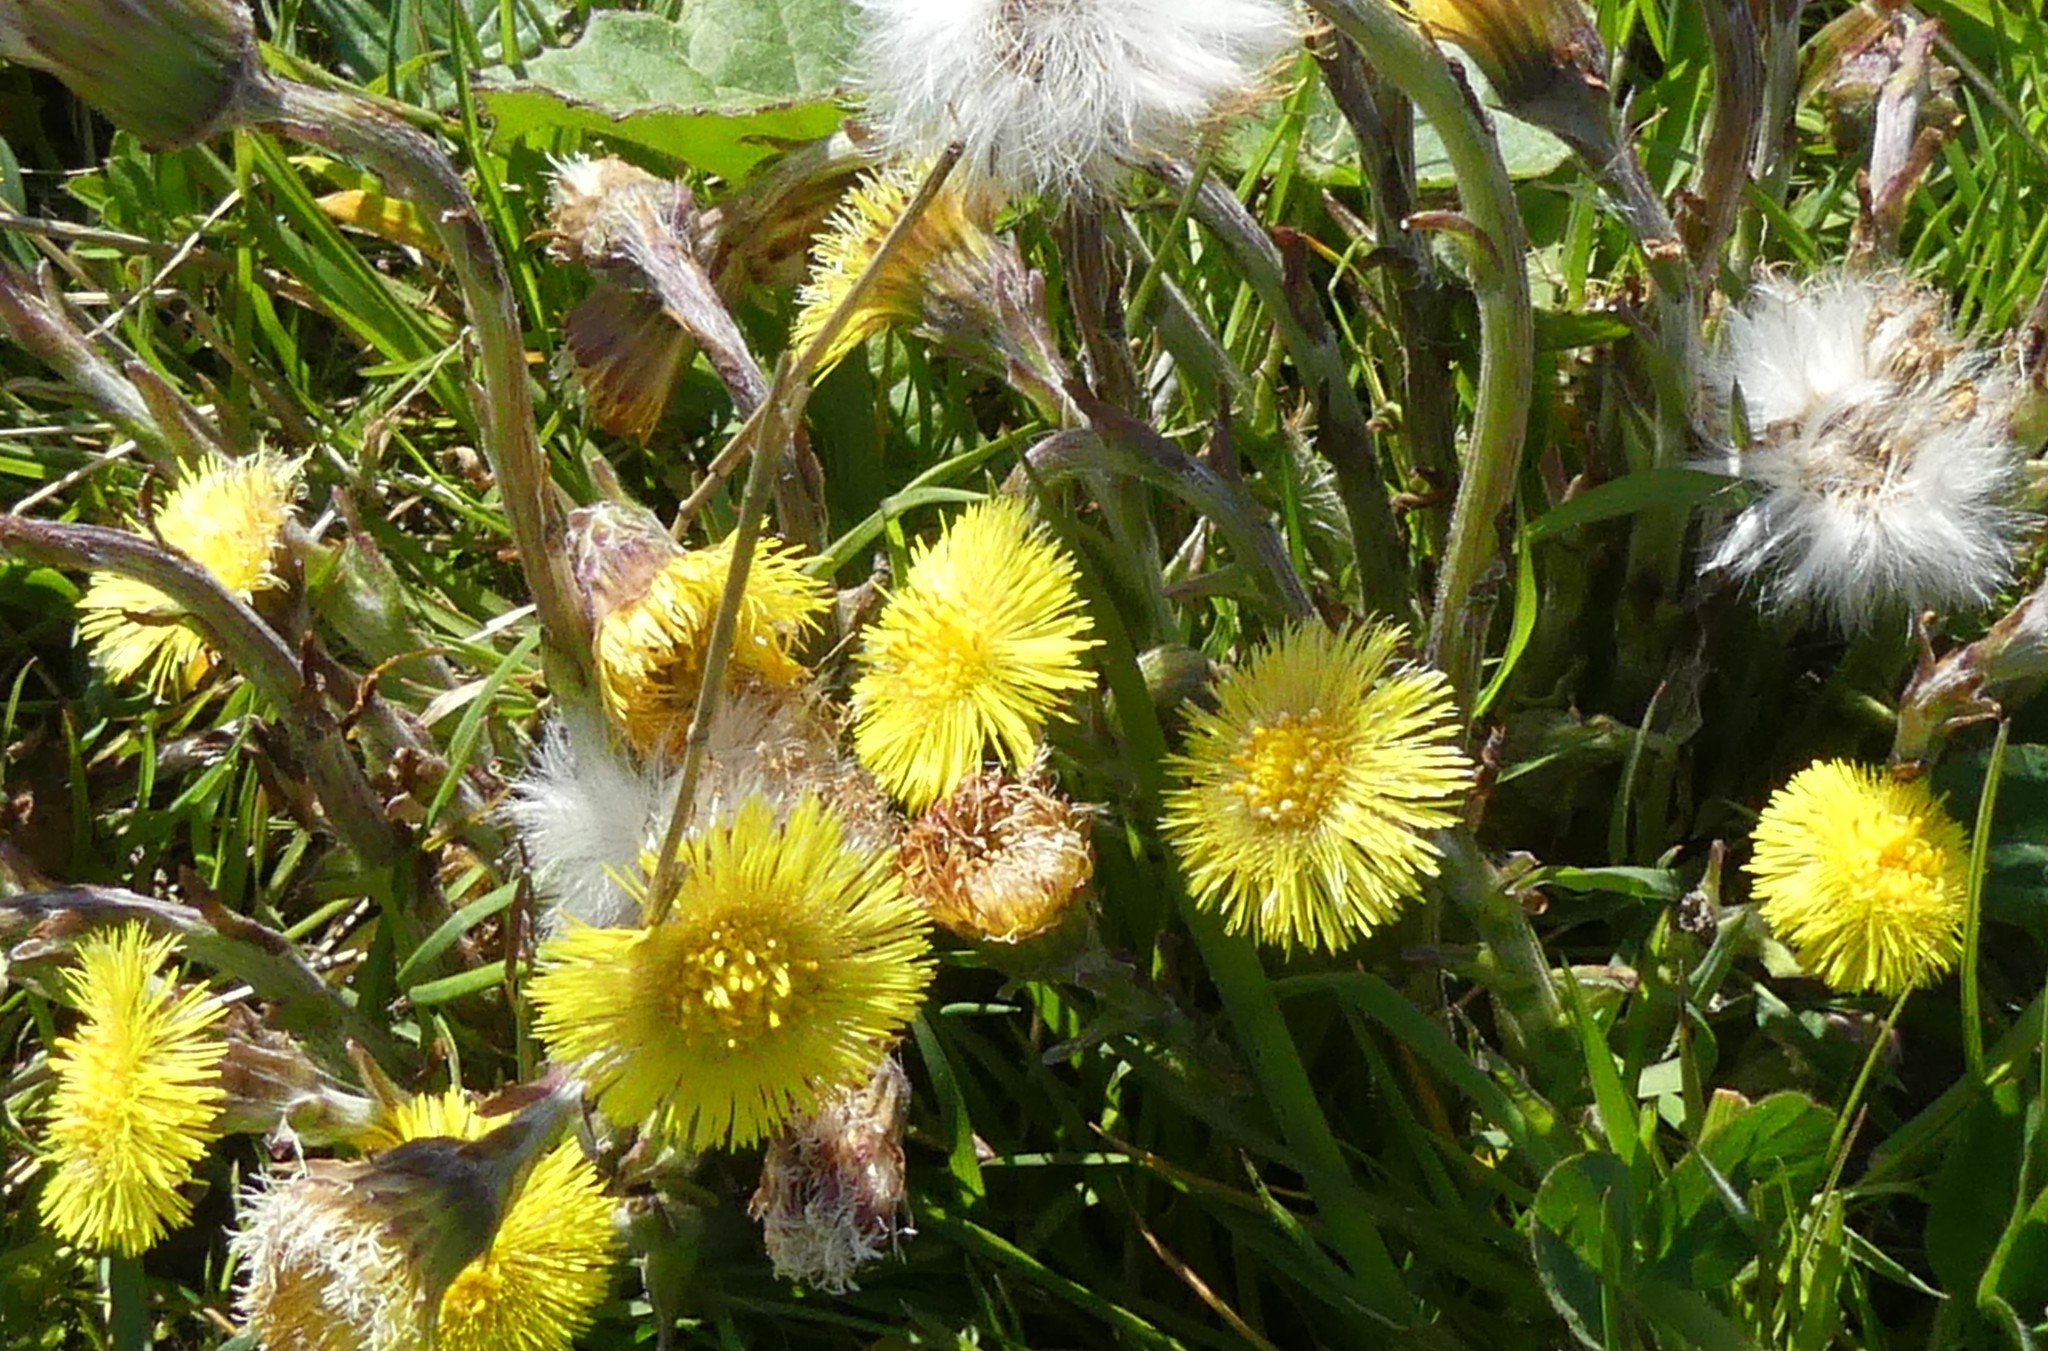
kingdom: Plantae
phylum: Tracheophyta
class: Magnoliopsida
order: Asterales
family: Asteraceae
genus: Tussilago
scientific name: Tussilago farfara
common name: Coltsfoot
